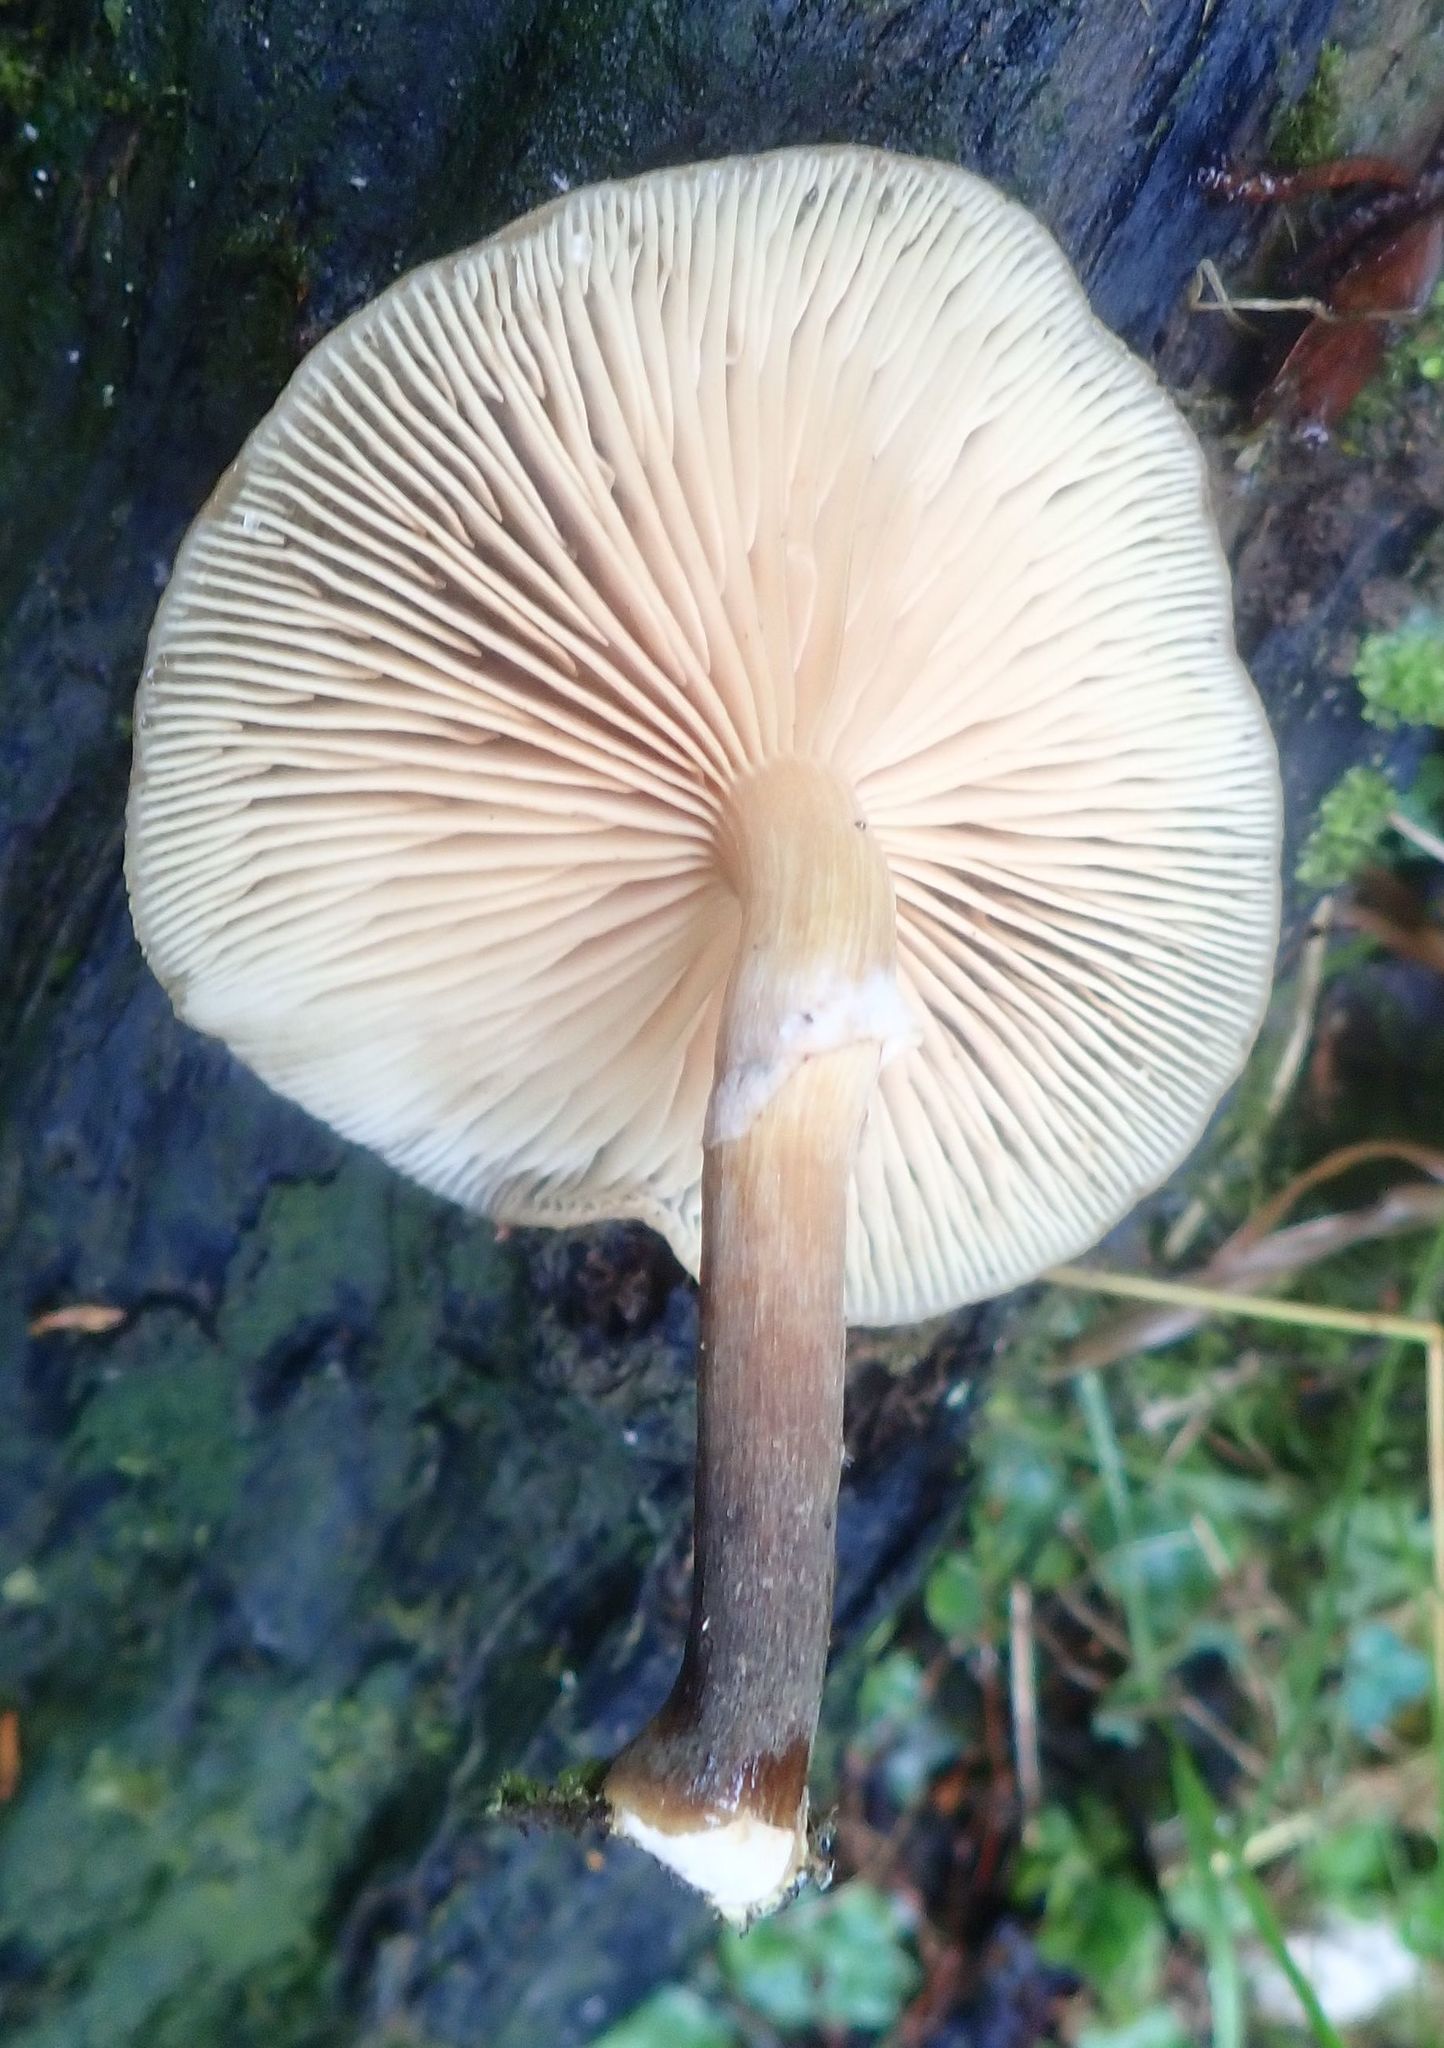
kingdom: Fungi
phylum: Basidiomycota
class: Agaricomycetes
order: Agaricales
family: Physalacriaceae
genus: Armillaria
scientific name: Armillaria novae-zelandiae
